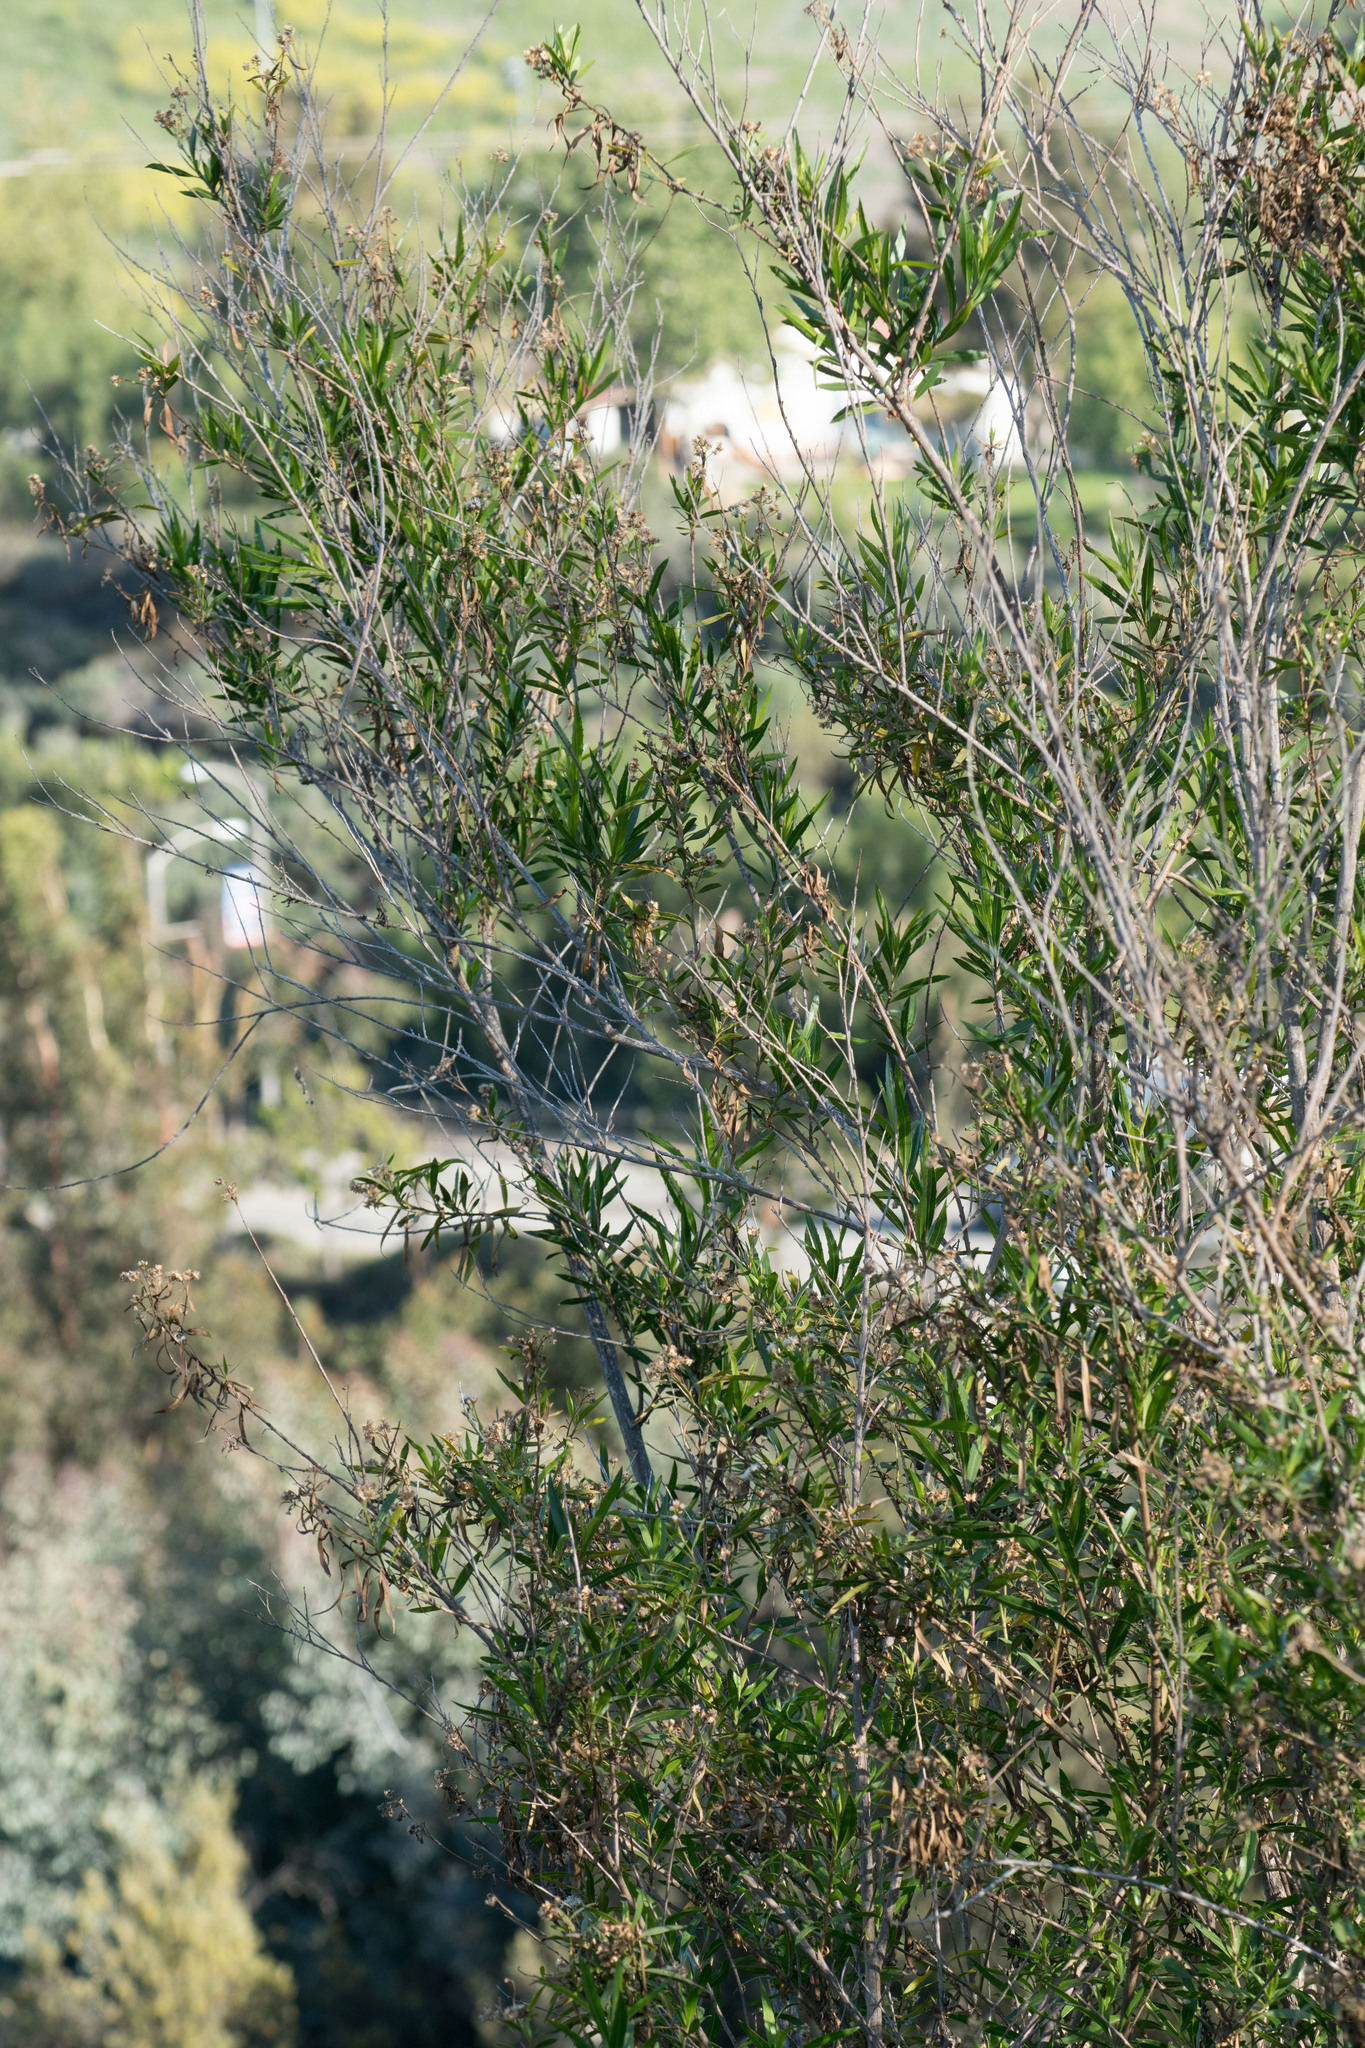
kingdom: Plantae
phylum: Tracheophyta
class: Magnoliopsida
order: Asterales
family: Asteraceae
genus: Baccharis
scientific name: Baccharis salicifolia
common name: Sticky baccharis
